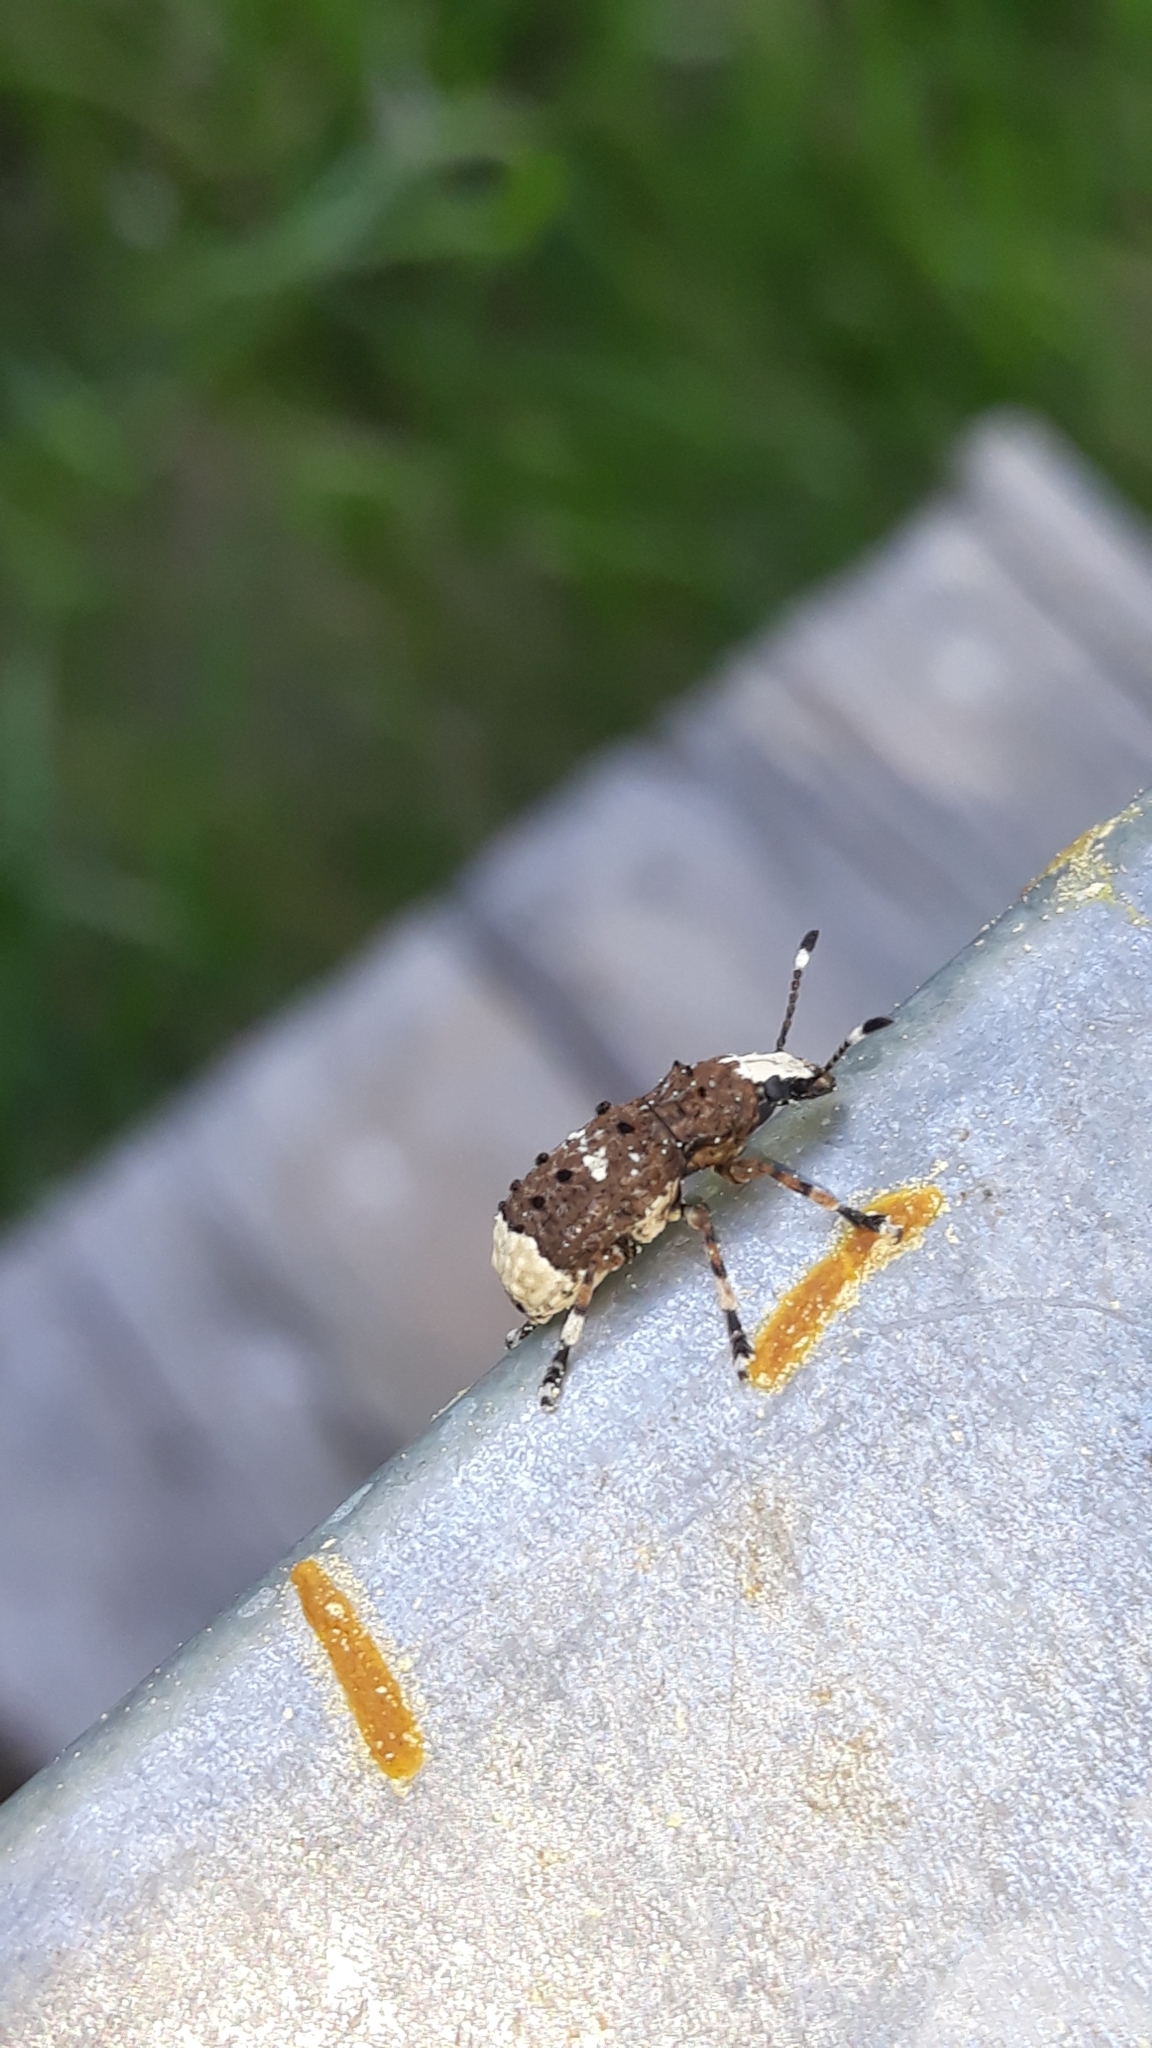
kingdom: Animalia
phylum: Arthropoda
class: Insecta
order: Coleoptera
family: Anthribidae
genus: Platystomos
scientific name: Platystomos albinus
